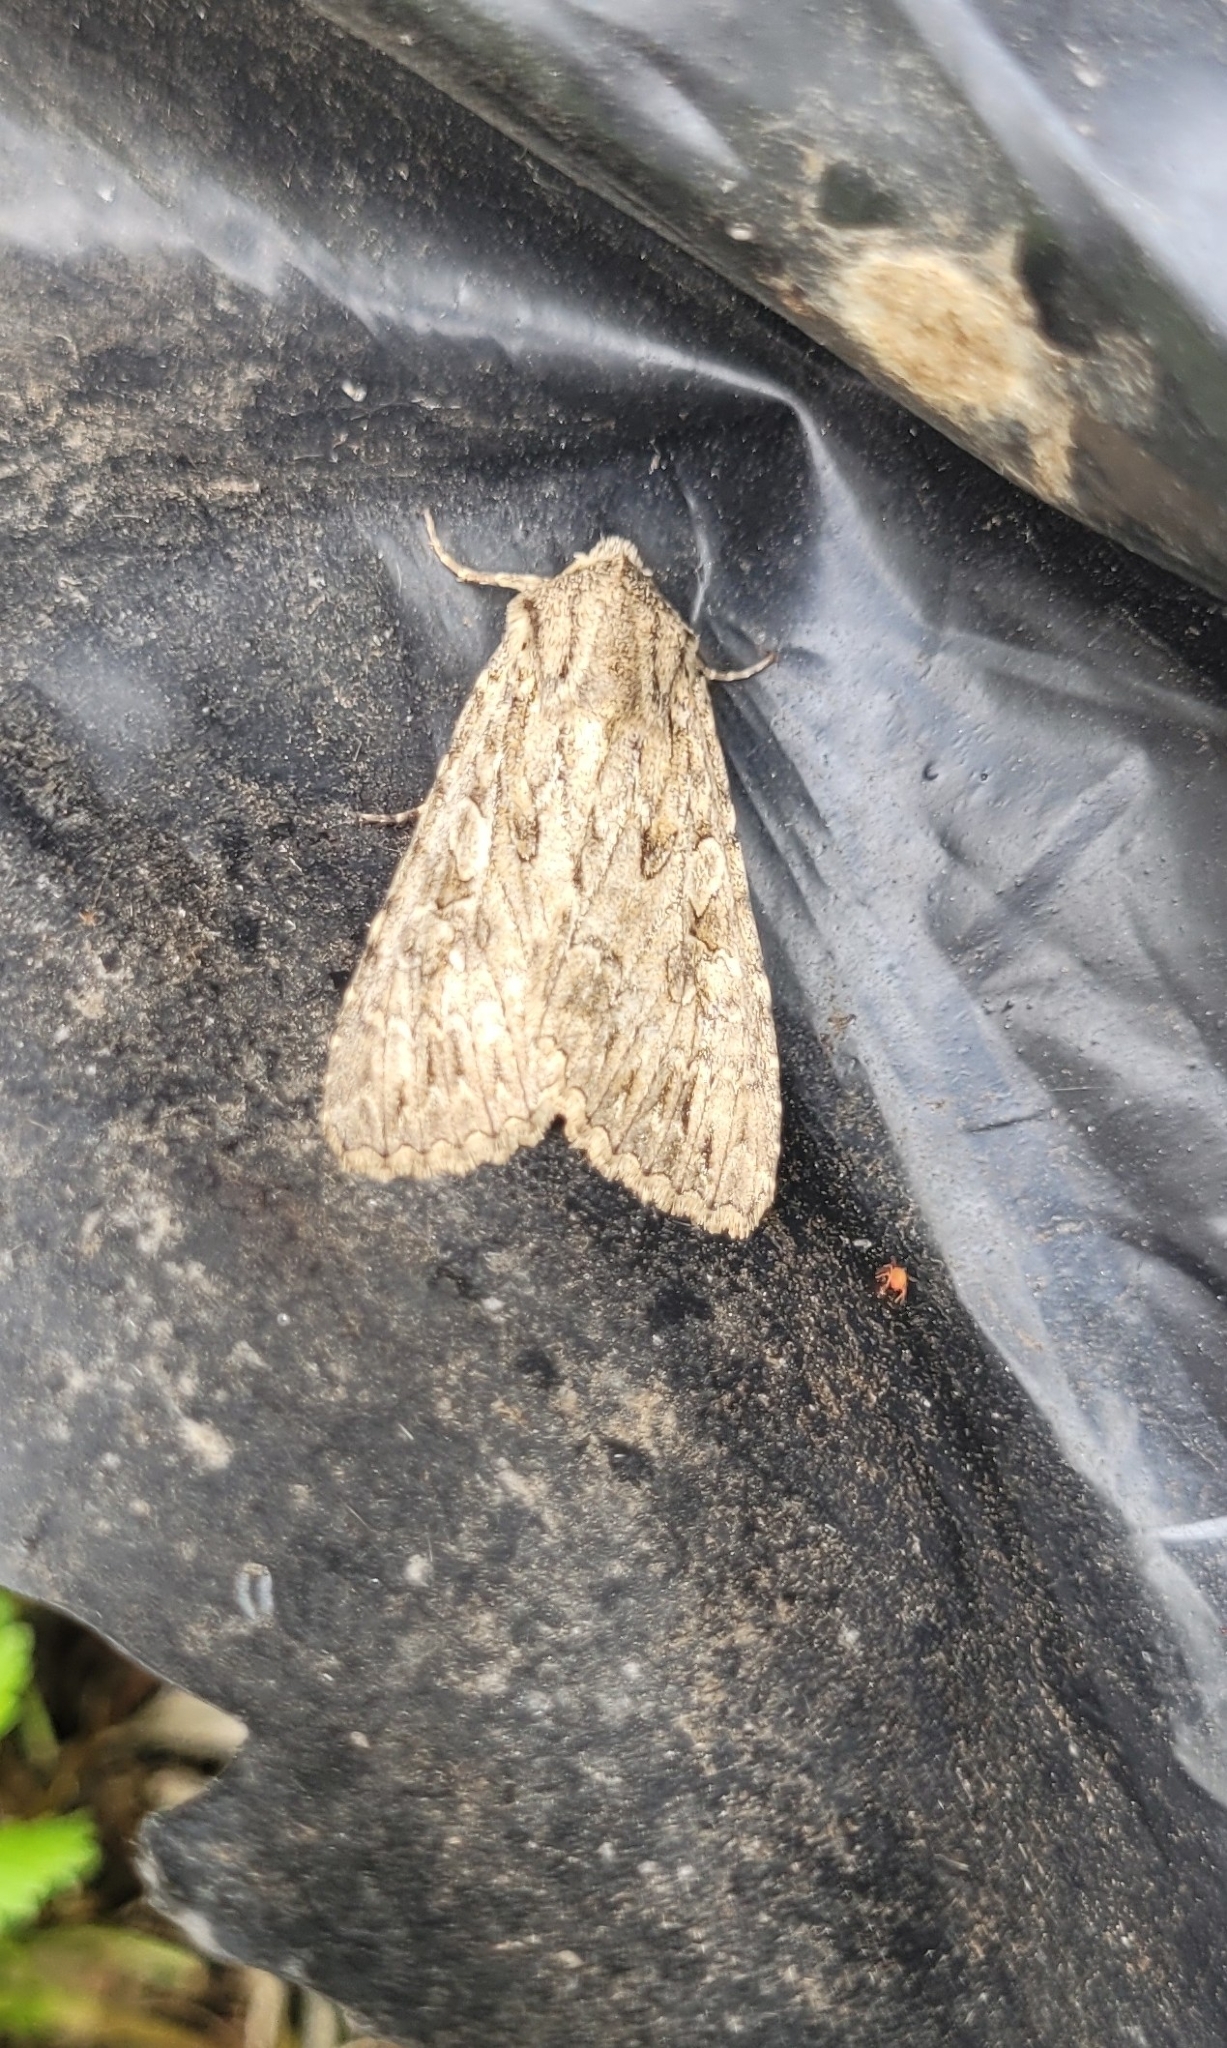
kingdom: Animalia
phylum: Arthropoda
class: Insecta
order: Lepidoptera
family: Noctuidae
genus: Anarta
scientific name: Anarta trifolii
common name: Clover cutworm moth
